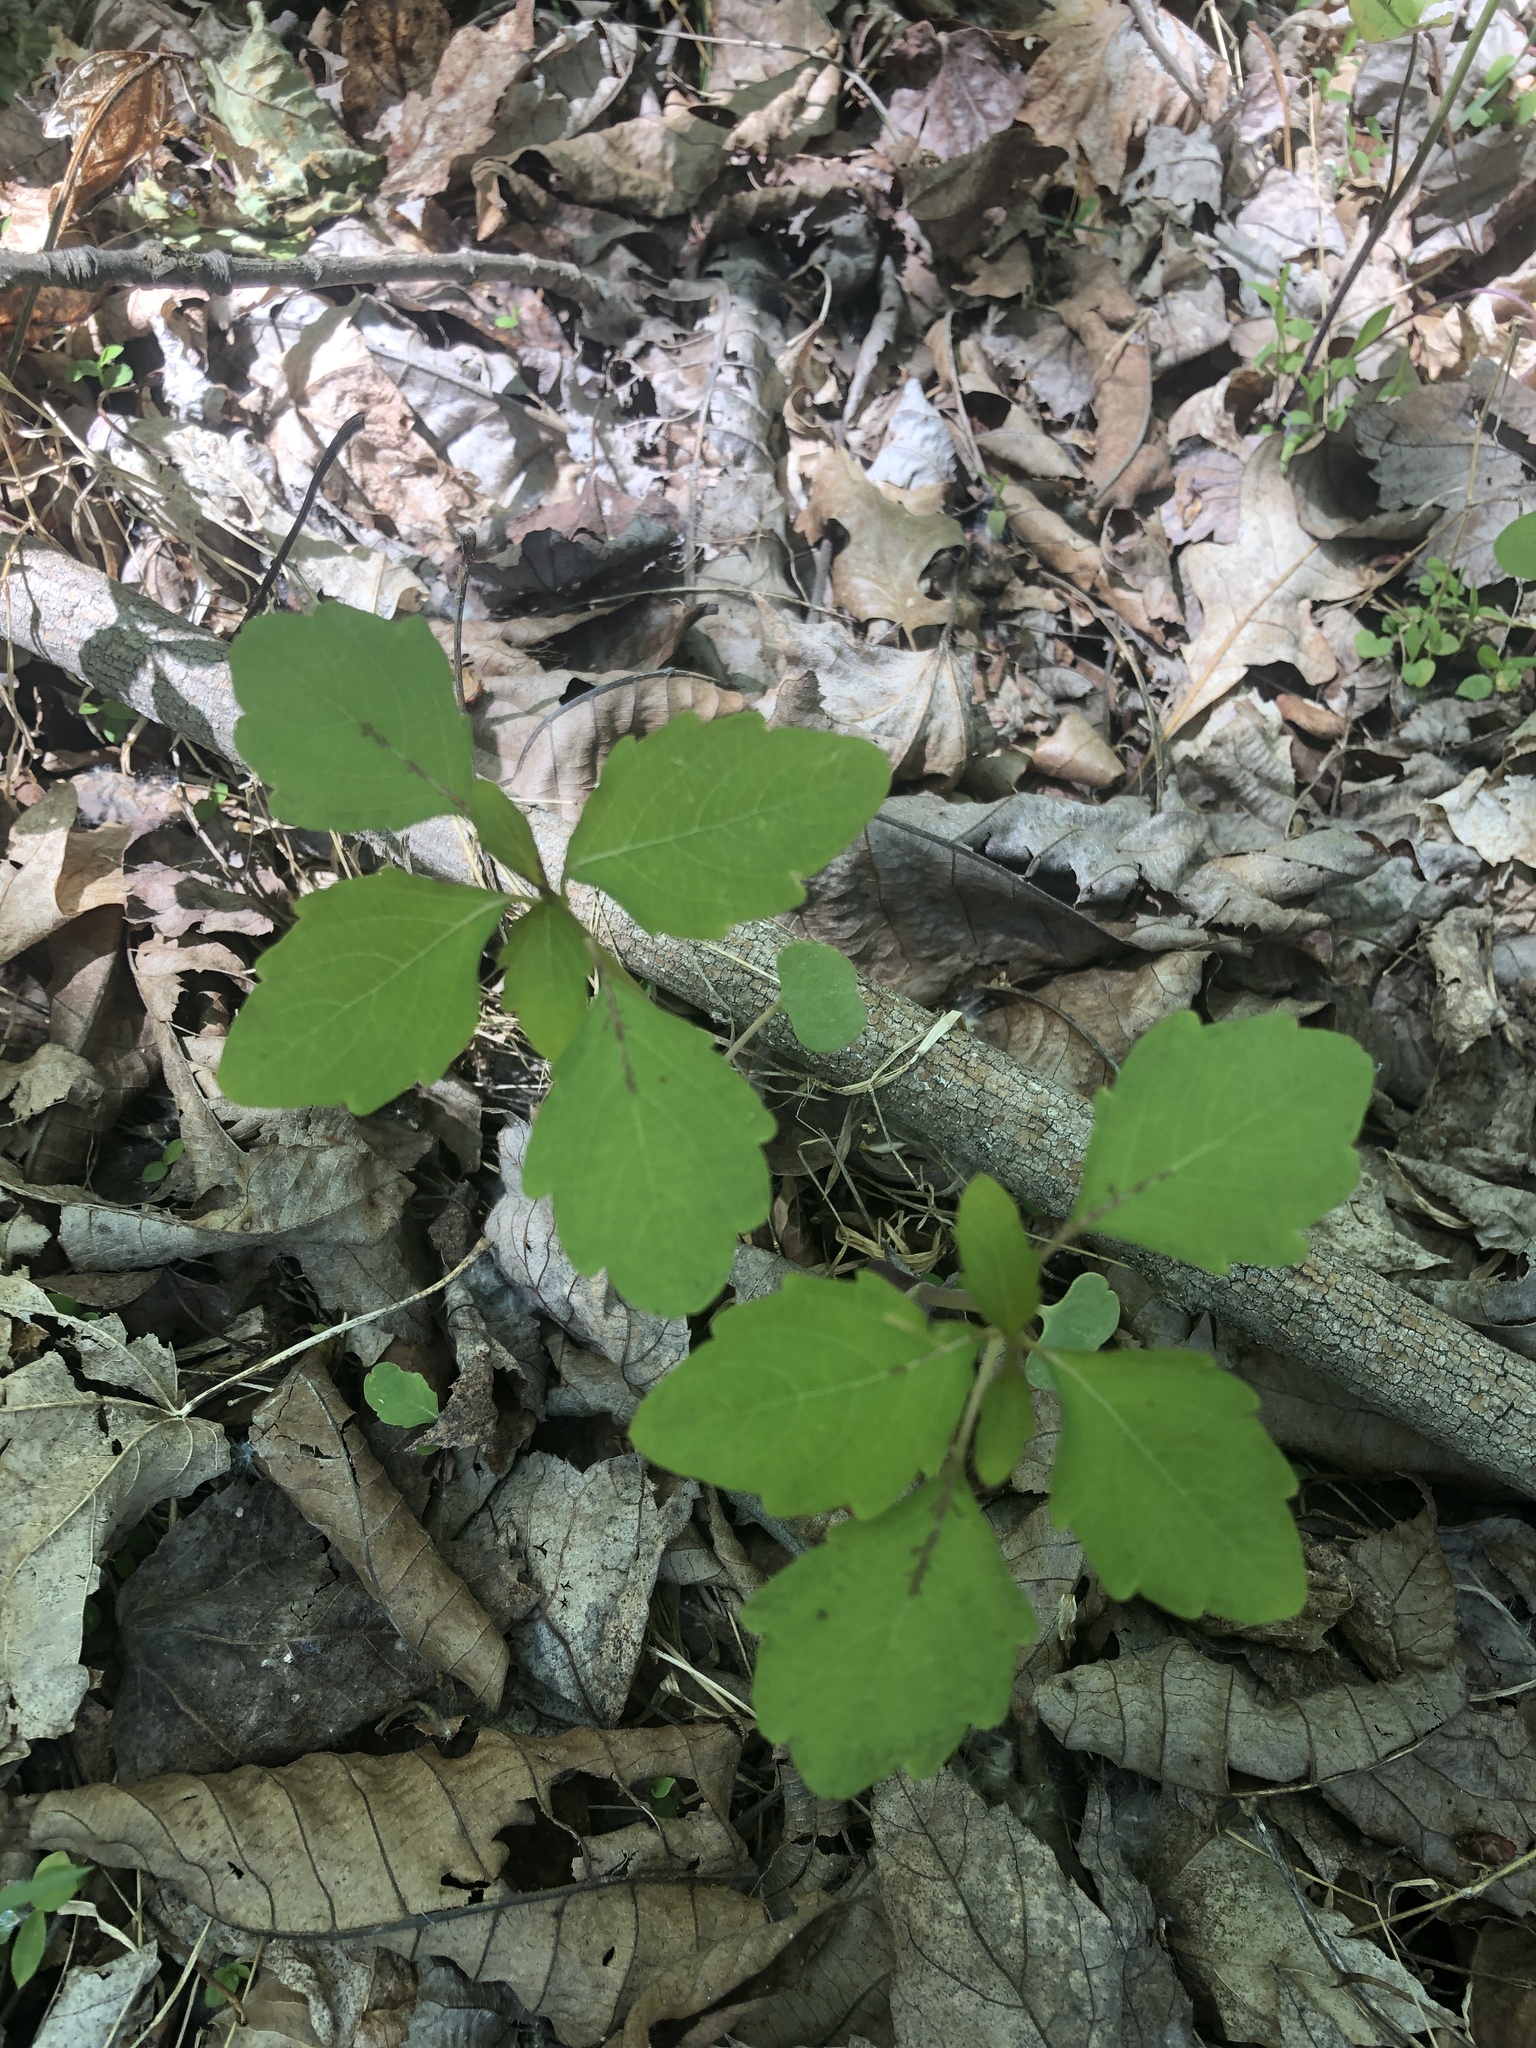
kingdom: Plantae
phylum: Tracheophyta
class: Magnoliopsida
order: Ericales
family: Balsaminaceae
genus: Impatiens
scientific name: Impatiens
